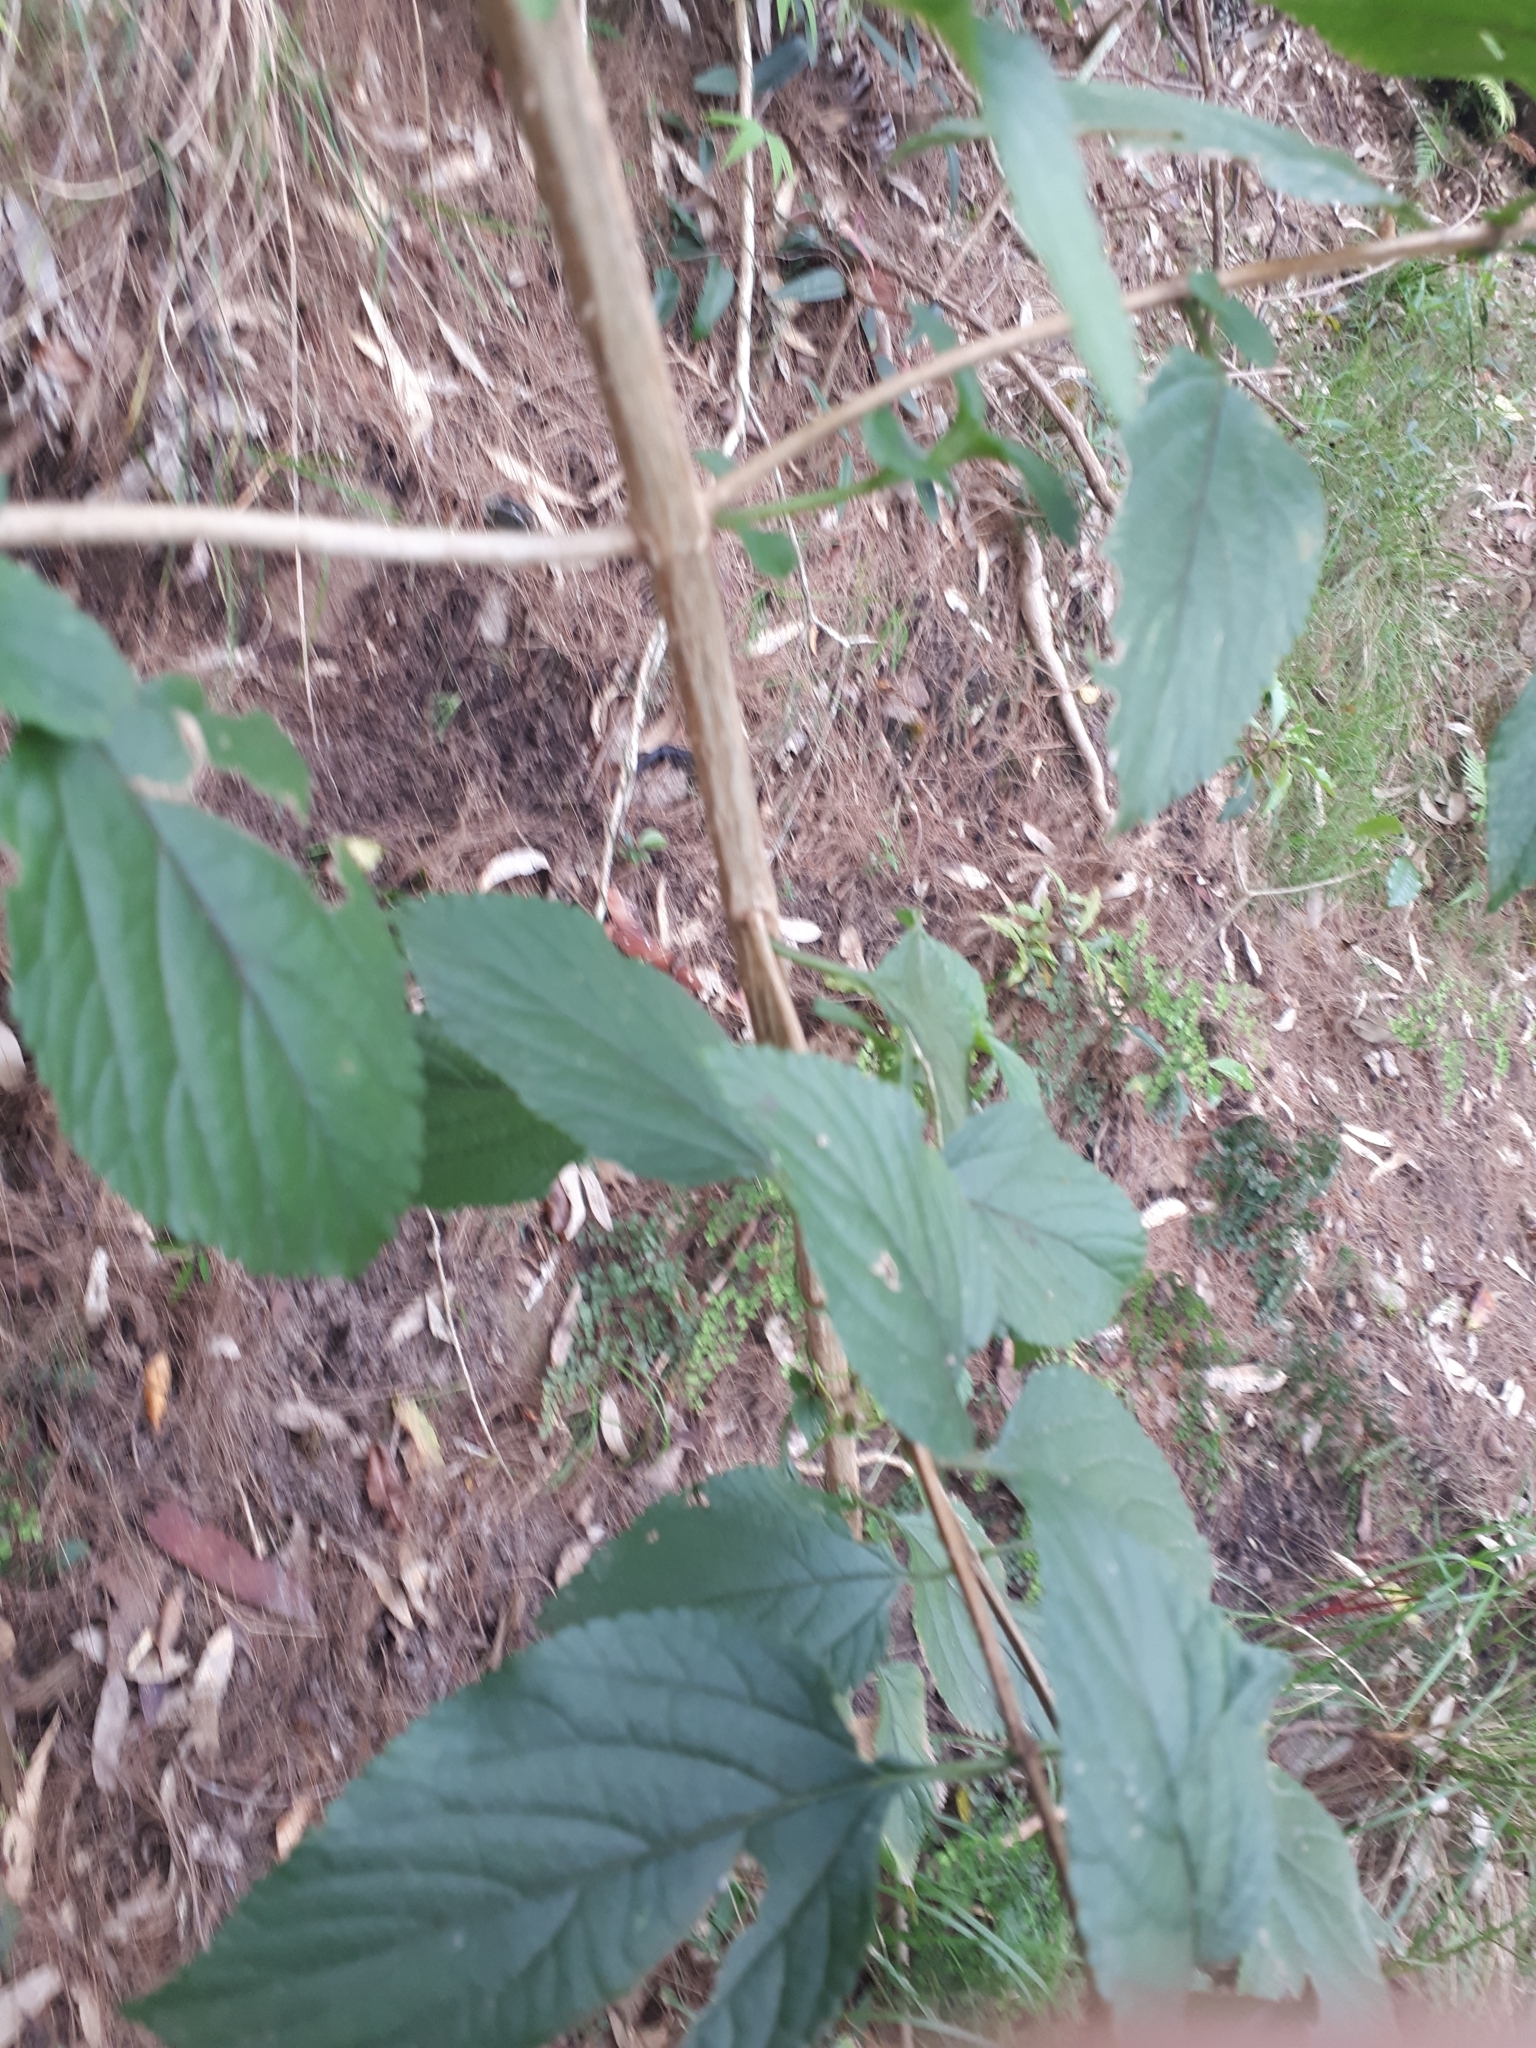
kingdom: Plantae
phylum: Tracheophyta
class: Magnoliopsida
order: Lamiales
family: Verbenaceae
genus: Lantana
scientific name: Lantana camara
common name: Lantana
